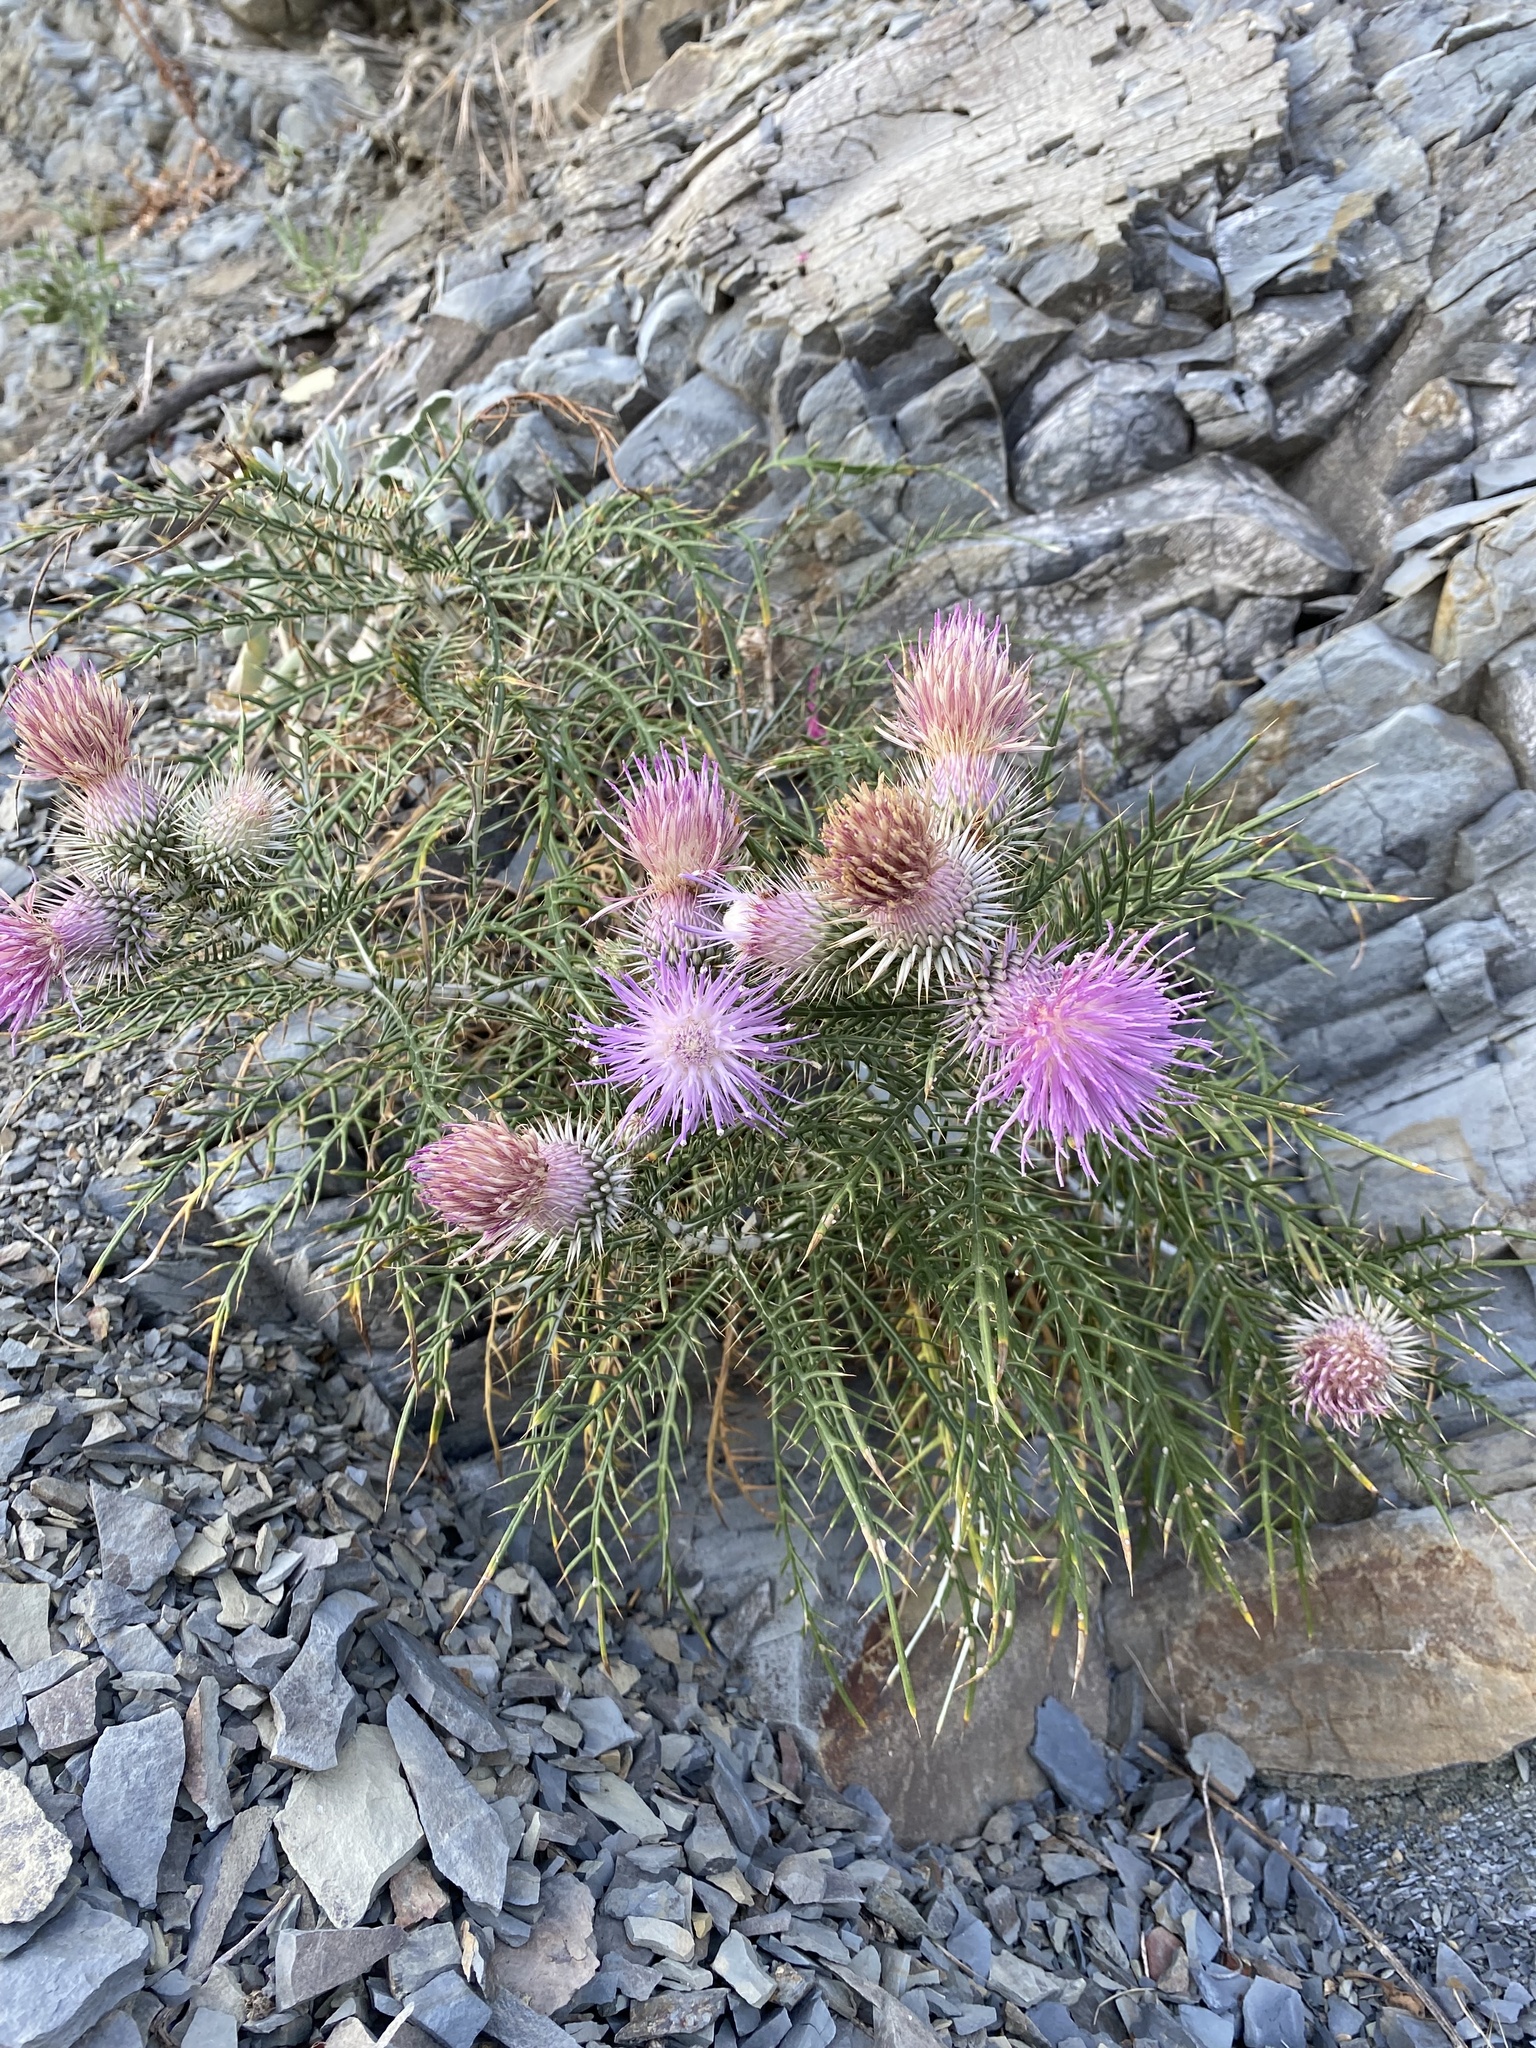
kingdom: Plantae
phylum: Tracheophyta
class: Magnoliopsida
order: Asterales
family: Asteraceae
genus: Ptilostemon
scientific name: Ptilostemon echinocephalus
